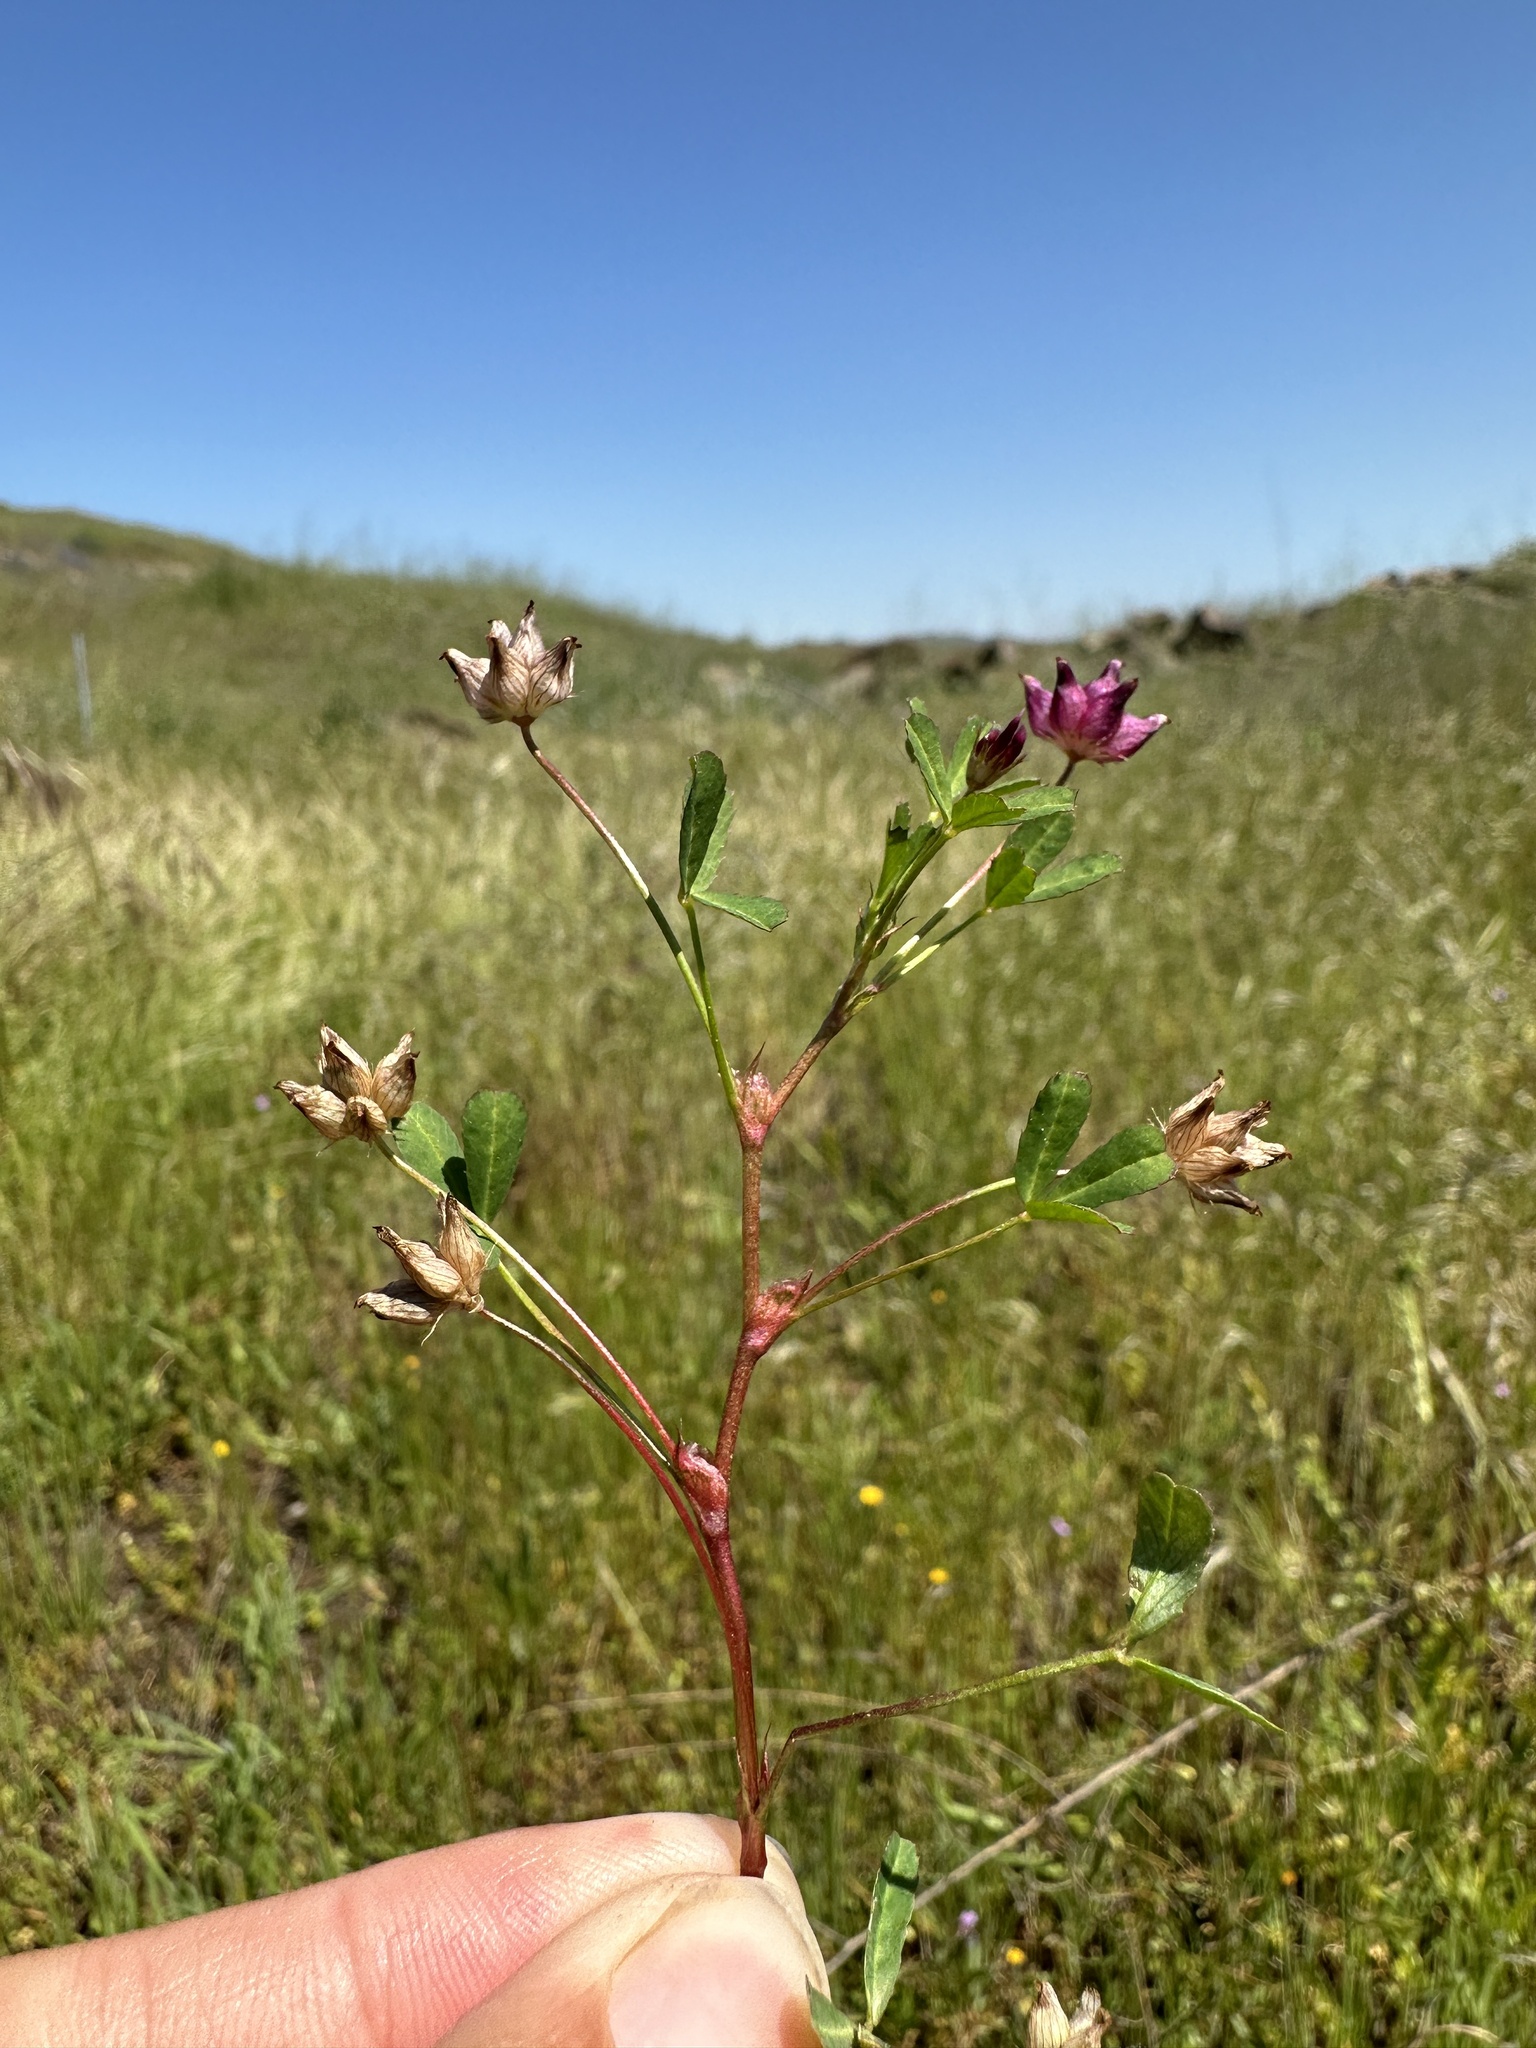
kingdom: Plantae
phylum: Tracheophyta
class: Magnoliopsida
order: Fabales
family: Fabaceae
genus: Trifolium
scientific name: Trifolium depauperatum
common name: Poverty clover
